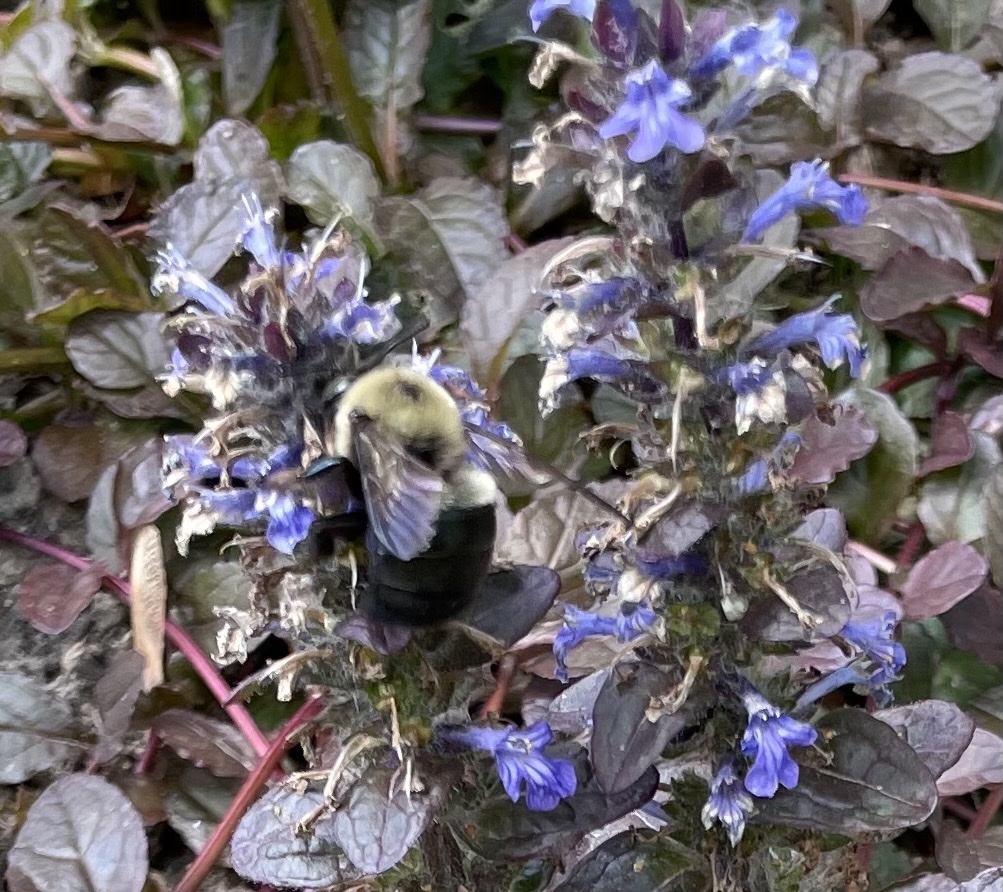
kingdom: Animalia
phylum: Arthropoda
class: Insecta
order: Hymenoptera
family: Apidae
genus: Xylocopa
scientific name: Xylocopa virginica
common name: Carpenter bee
